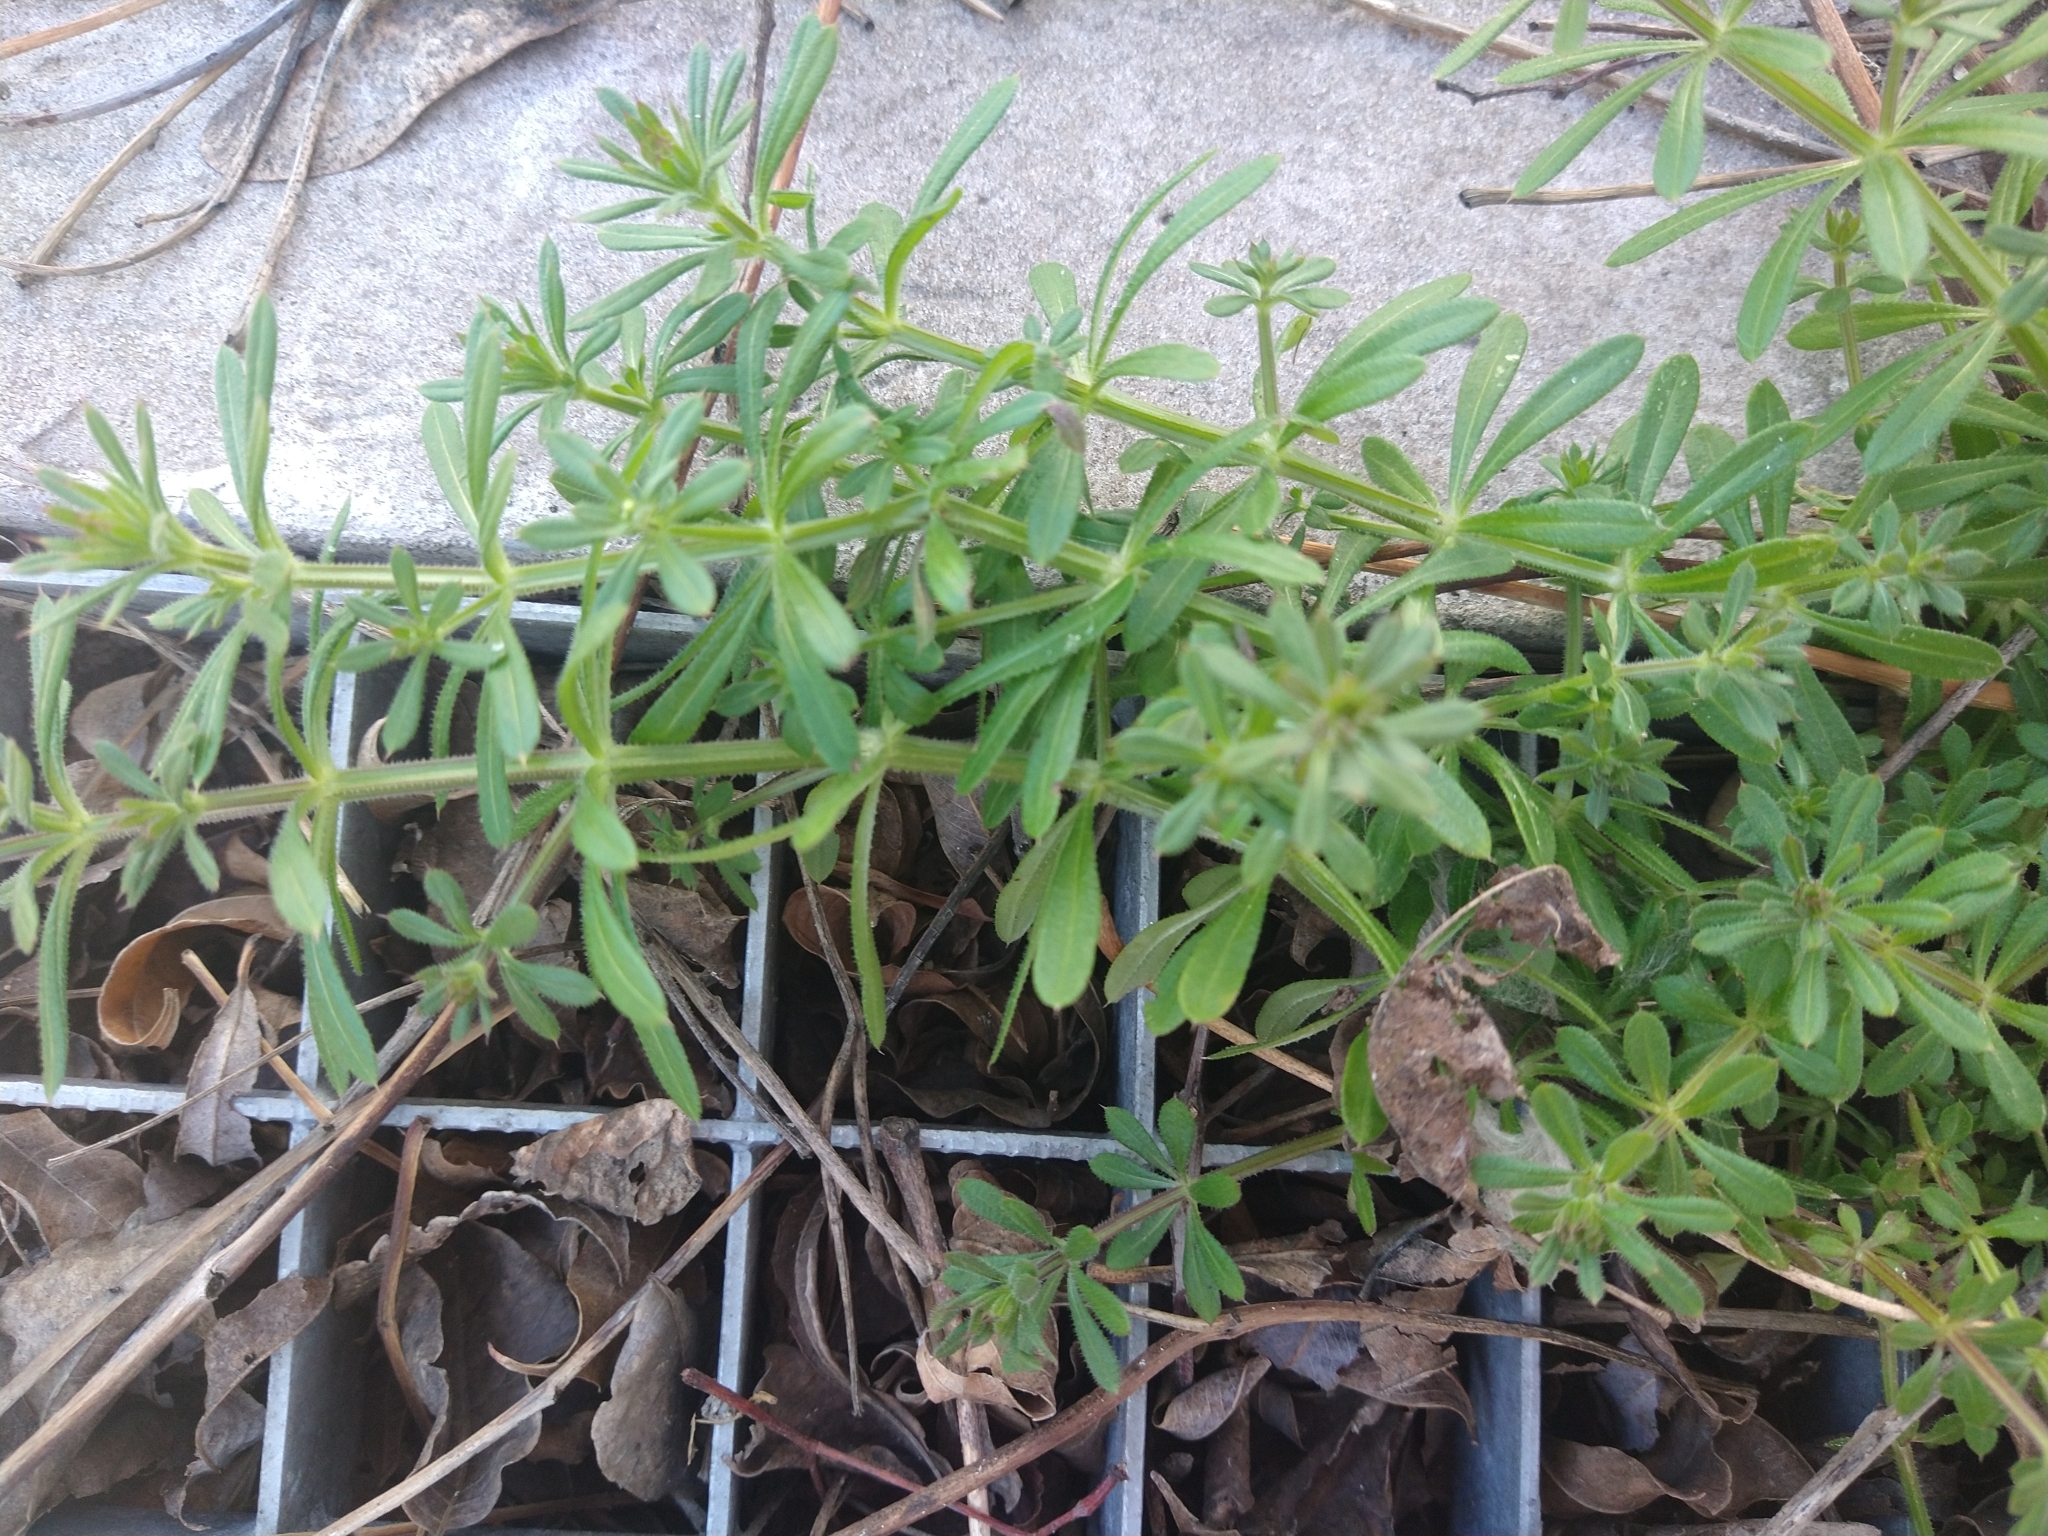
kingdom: Plantae
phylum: Tracheophyta
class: Magnoliopsida
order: Gentianales
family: Rubiaceae
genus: Galium
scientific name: Galium aparine
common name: Cleavers
